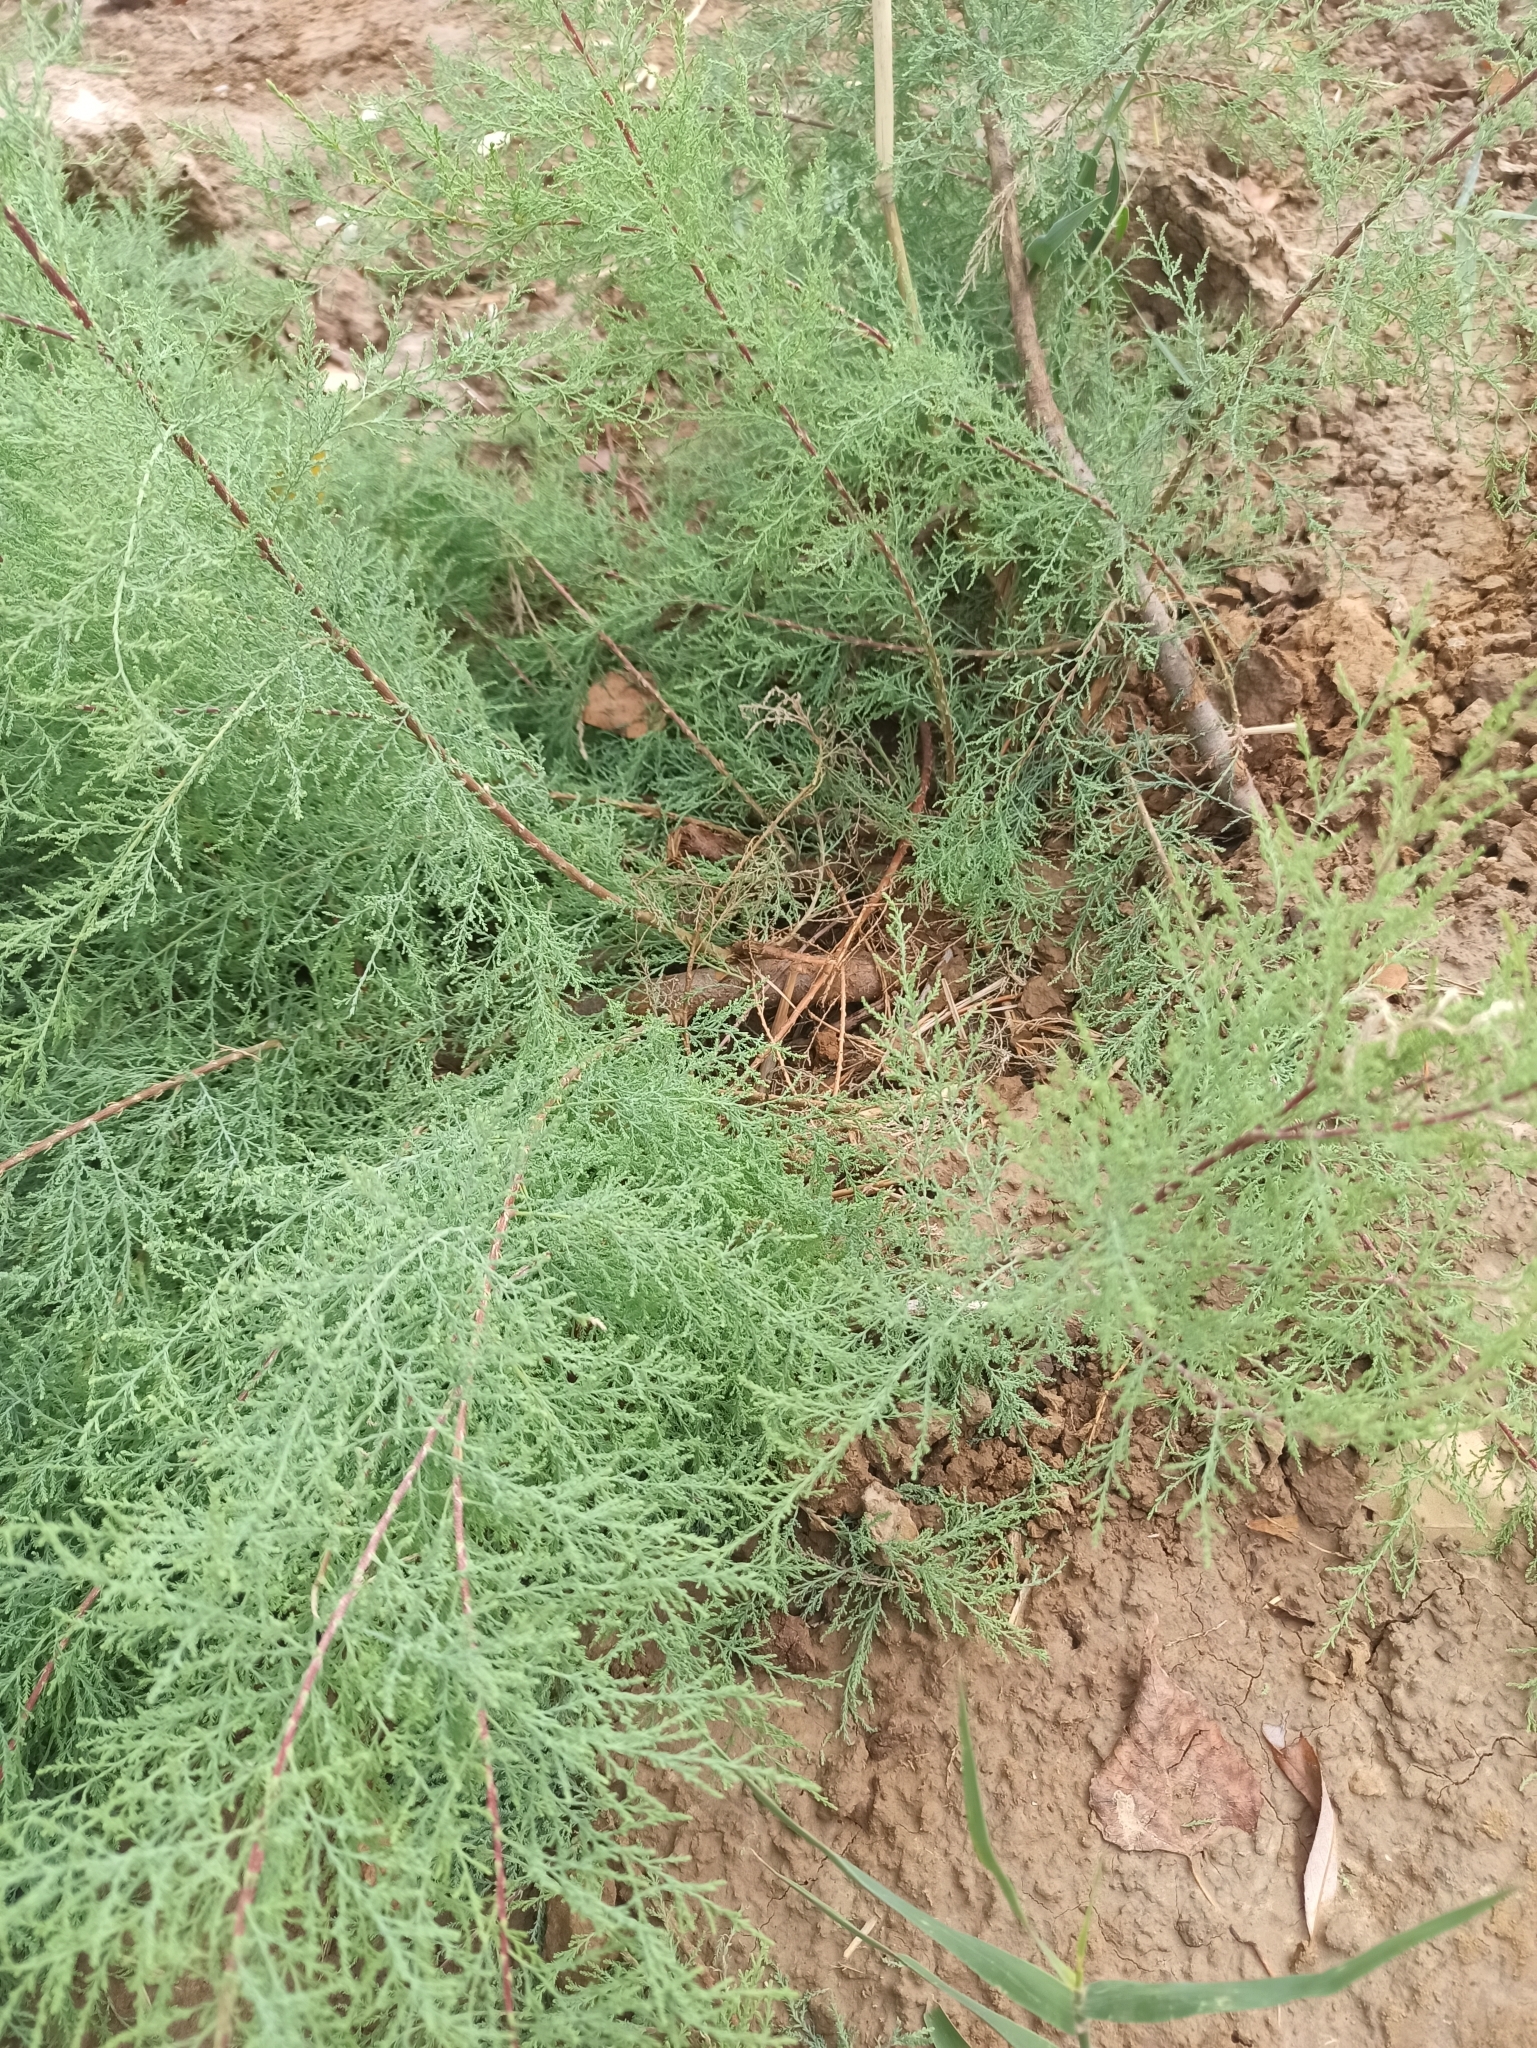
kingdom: Plantae
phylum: Tracheophyta
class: Magnoliopsida
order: Caryophyllales
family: Tamaricaceae
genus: Tamarix
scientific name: Tamarix ramosissima
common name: Pink tamarisk
